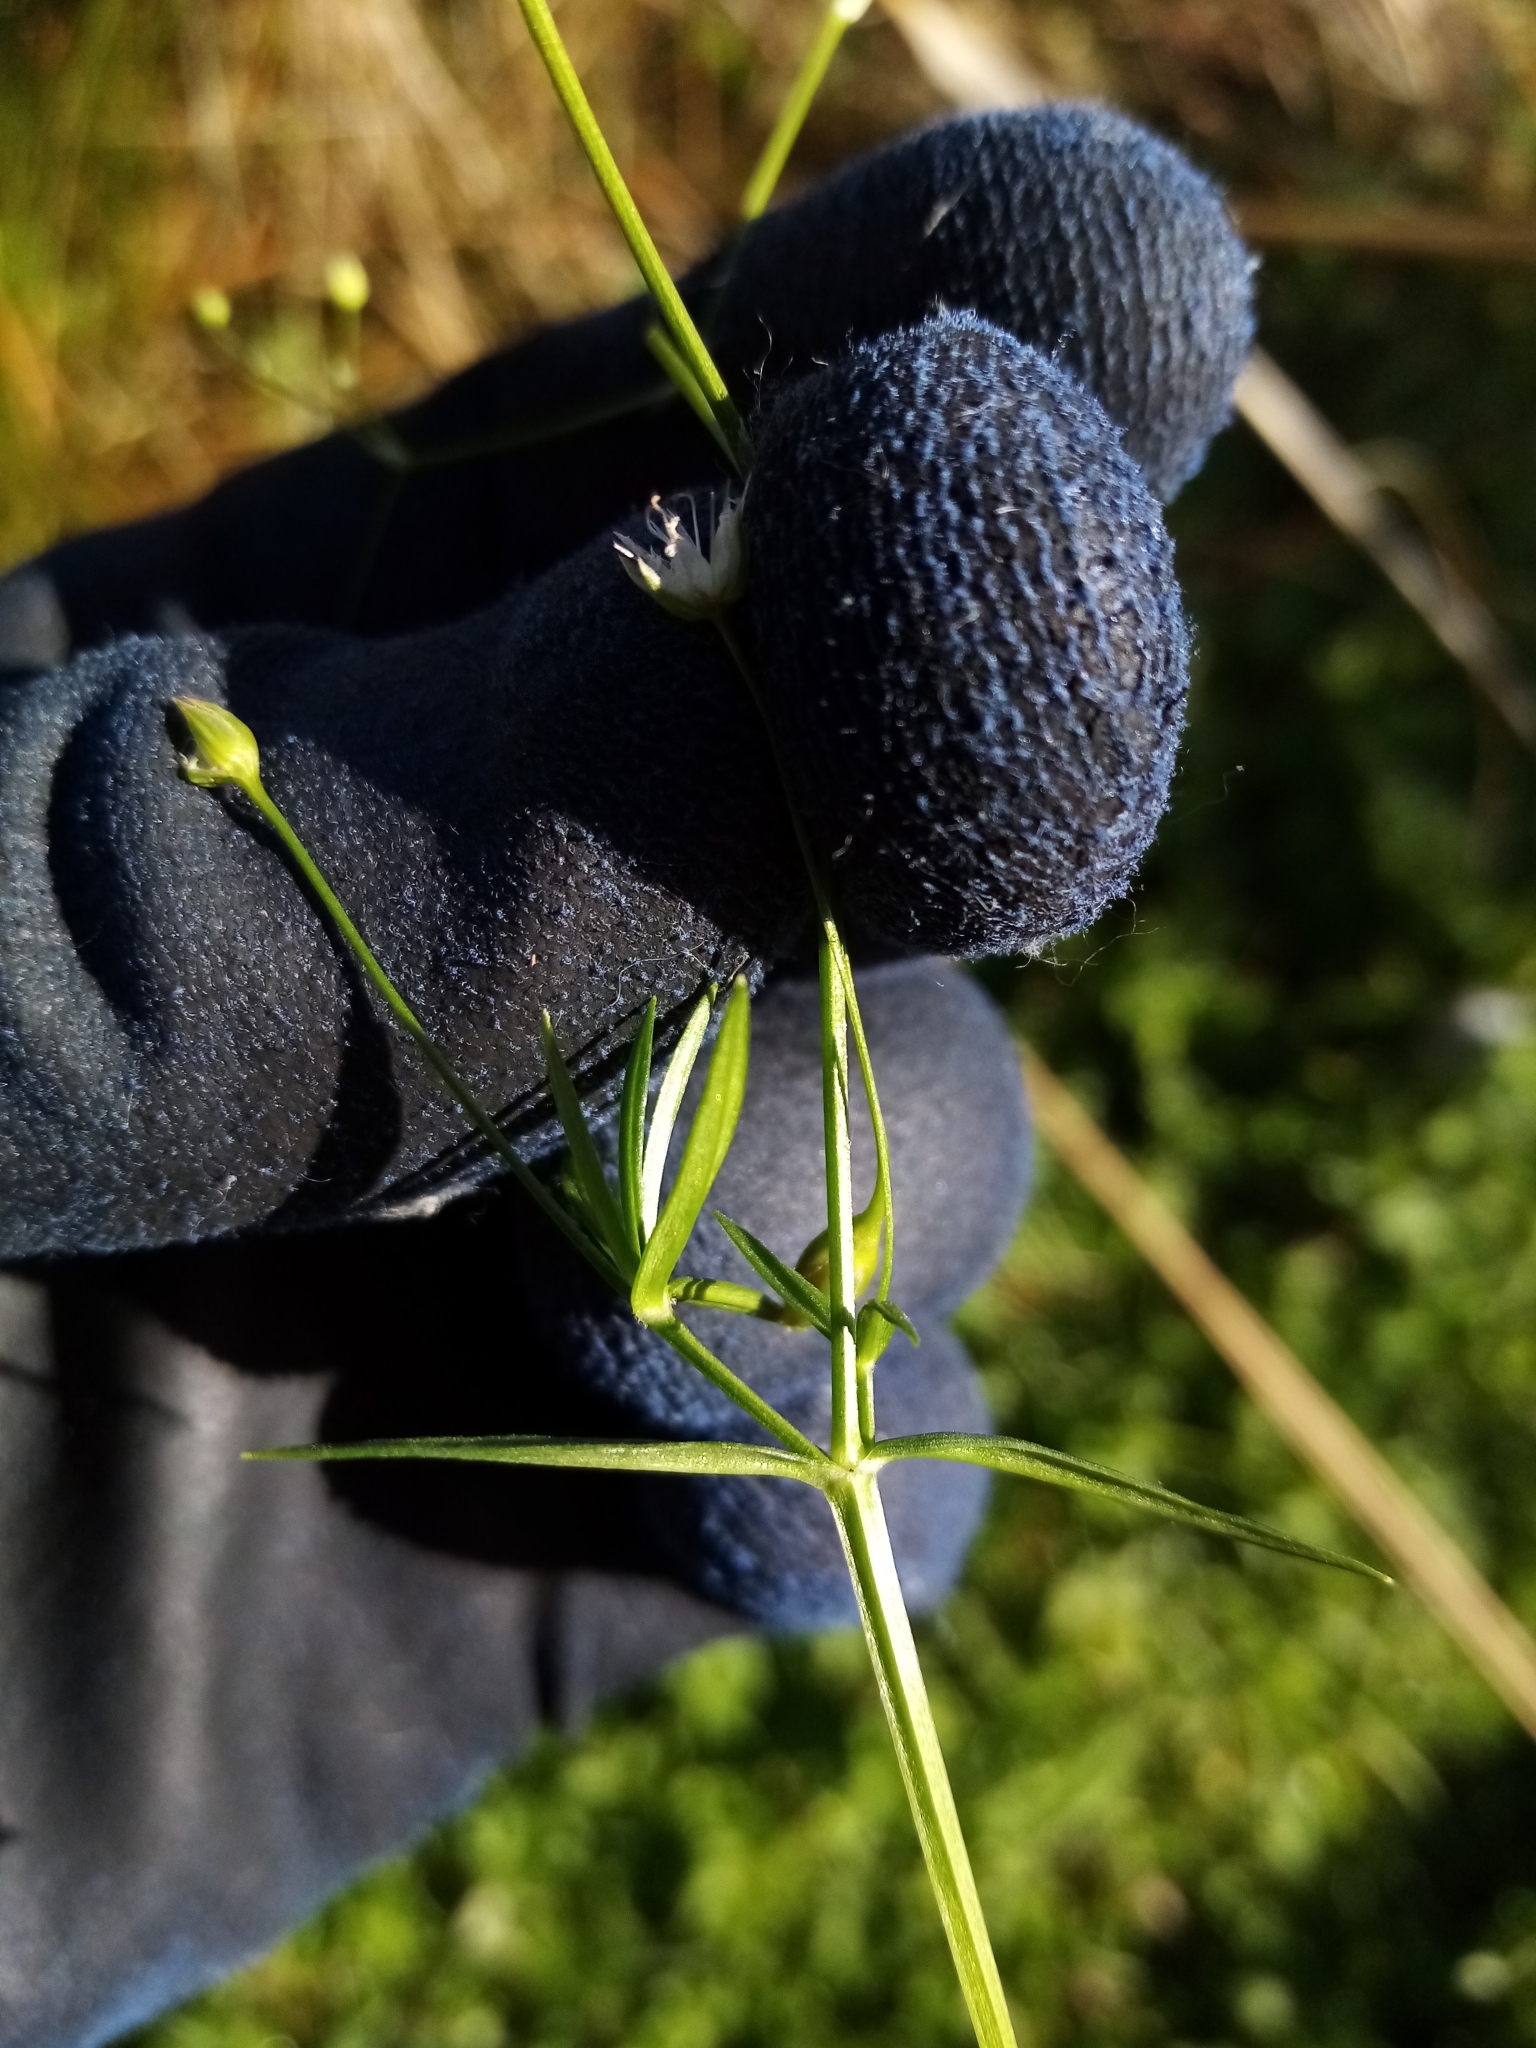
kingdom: Plantae
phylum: Tracheophyta
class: Magnoliopsida
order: Caryophyllales
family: Caryophyllaceae
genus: Stellaria
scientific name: Stellaria graminea
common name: Grass-like starwort
